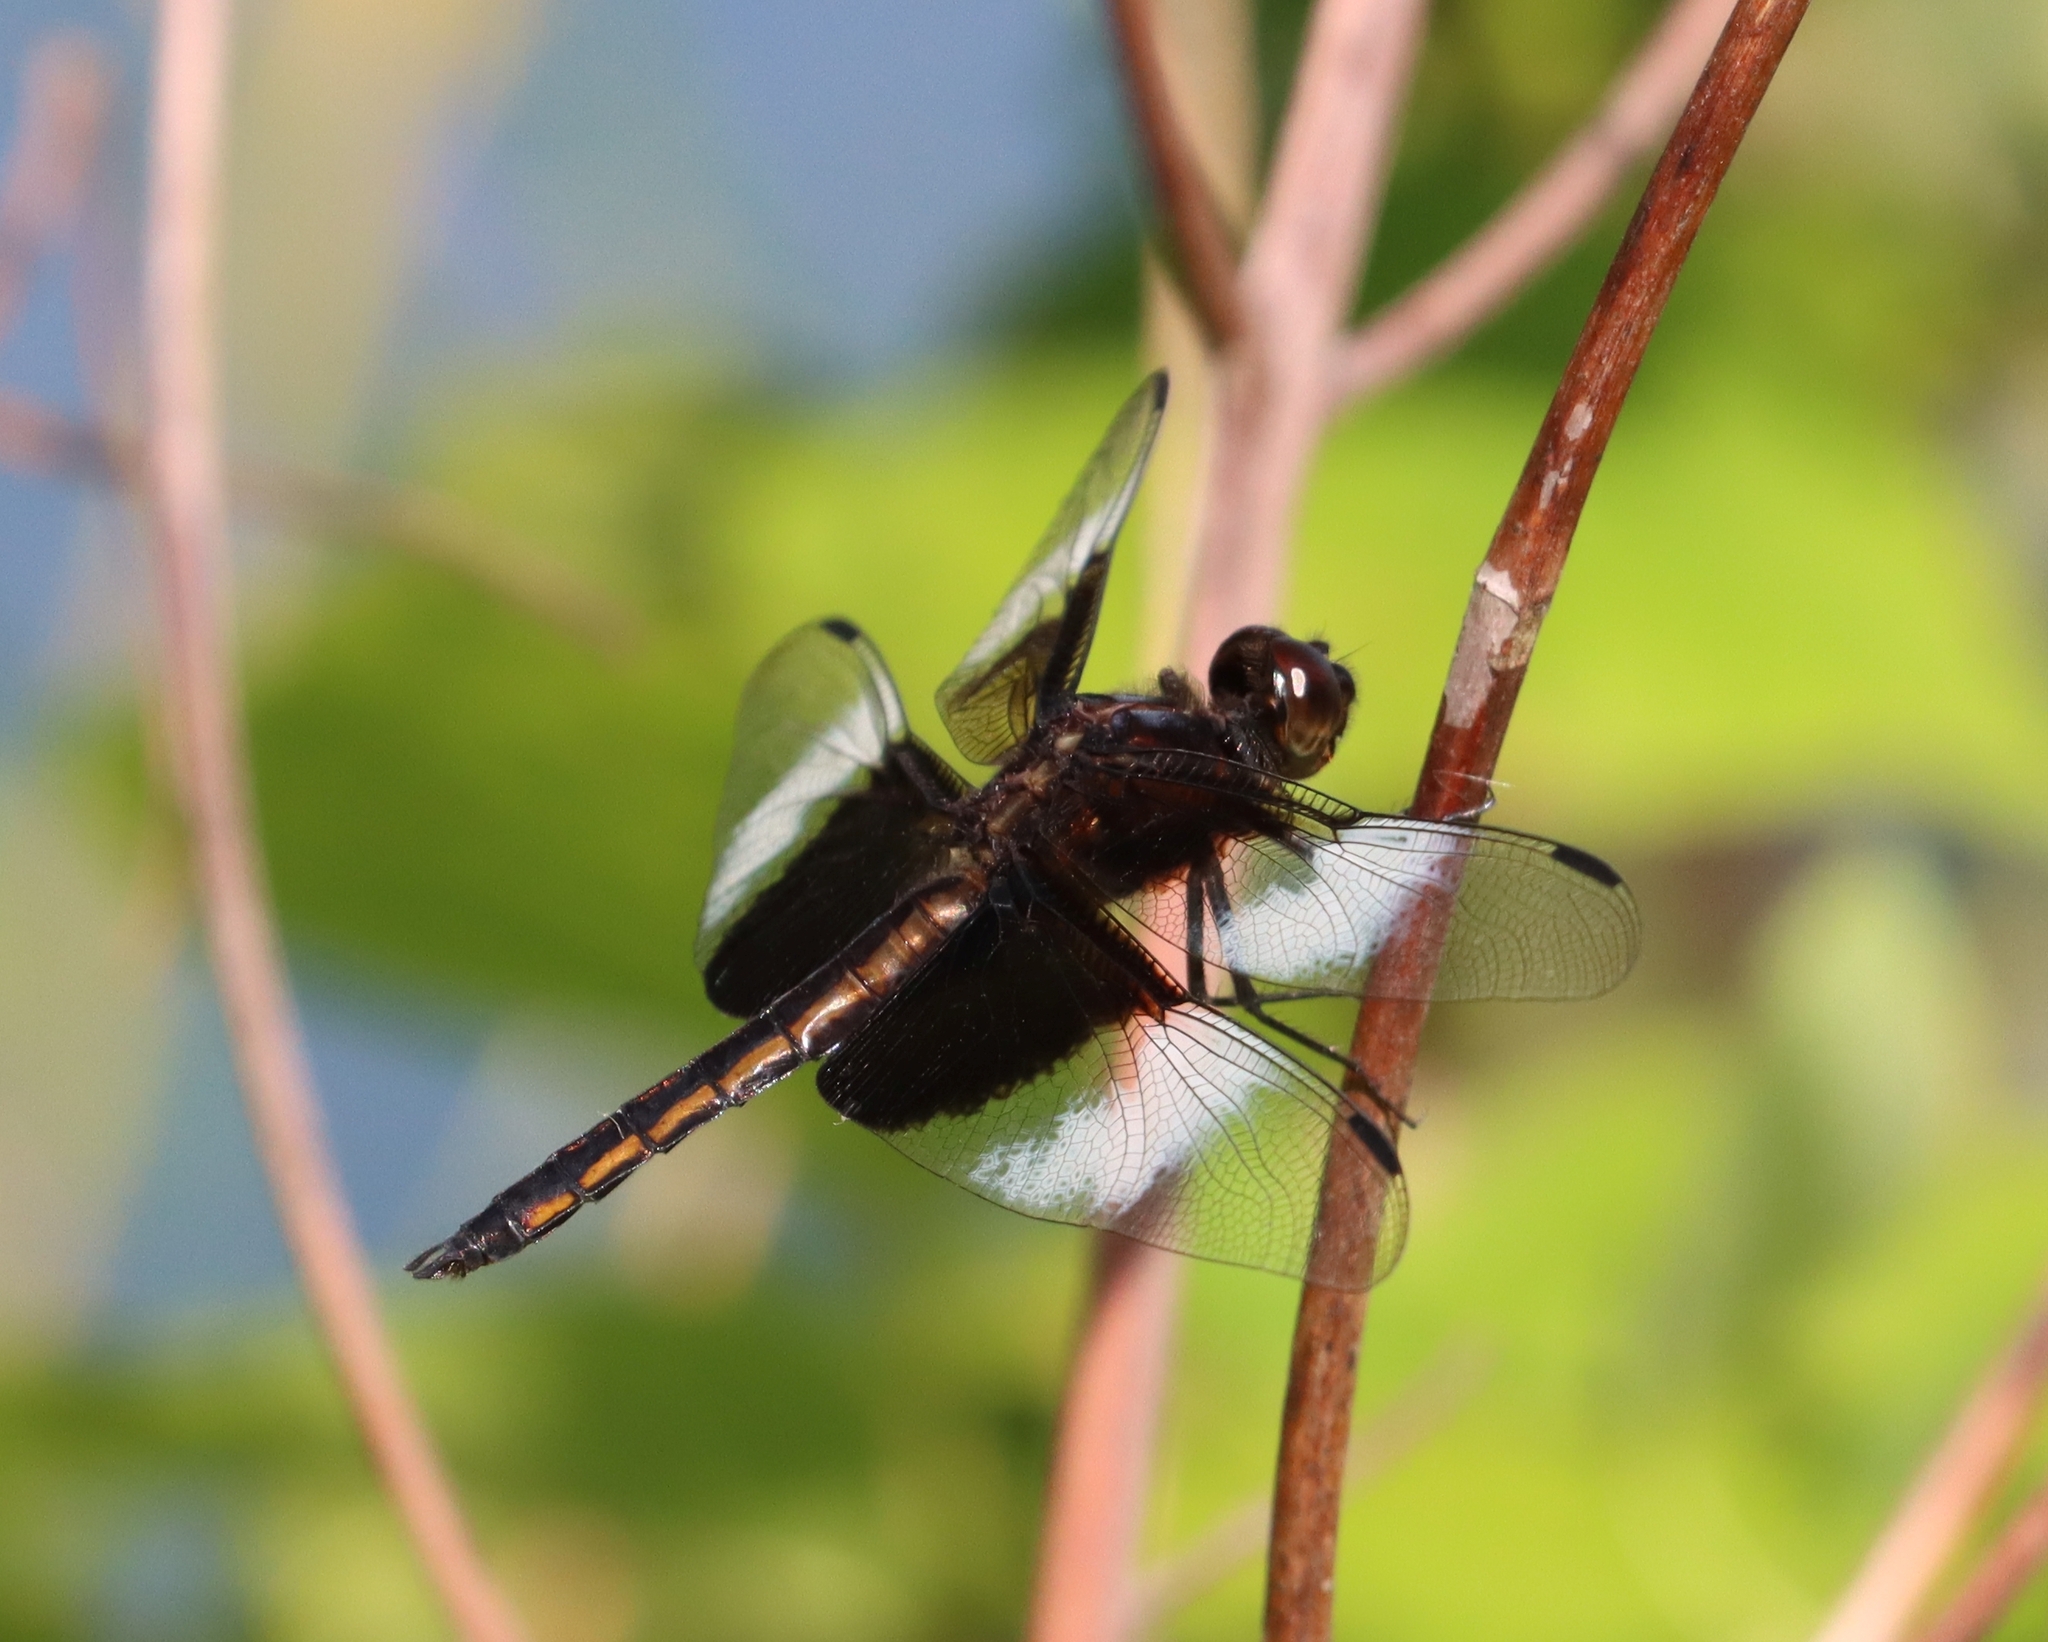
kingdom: Animalia
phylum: Arthropoda
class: Insecta
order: Odonata
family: Libellulidae
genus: Libellula
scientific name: Libellula luctuosa
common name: Widow skimmer
